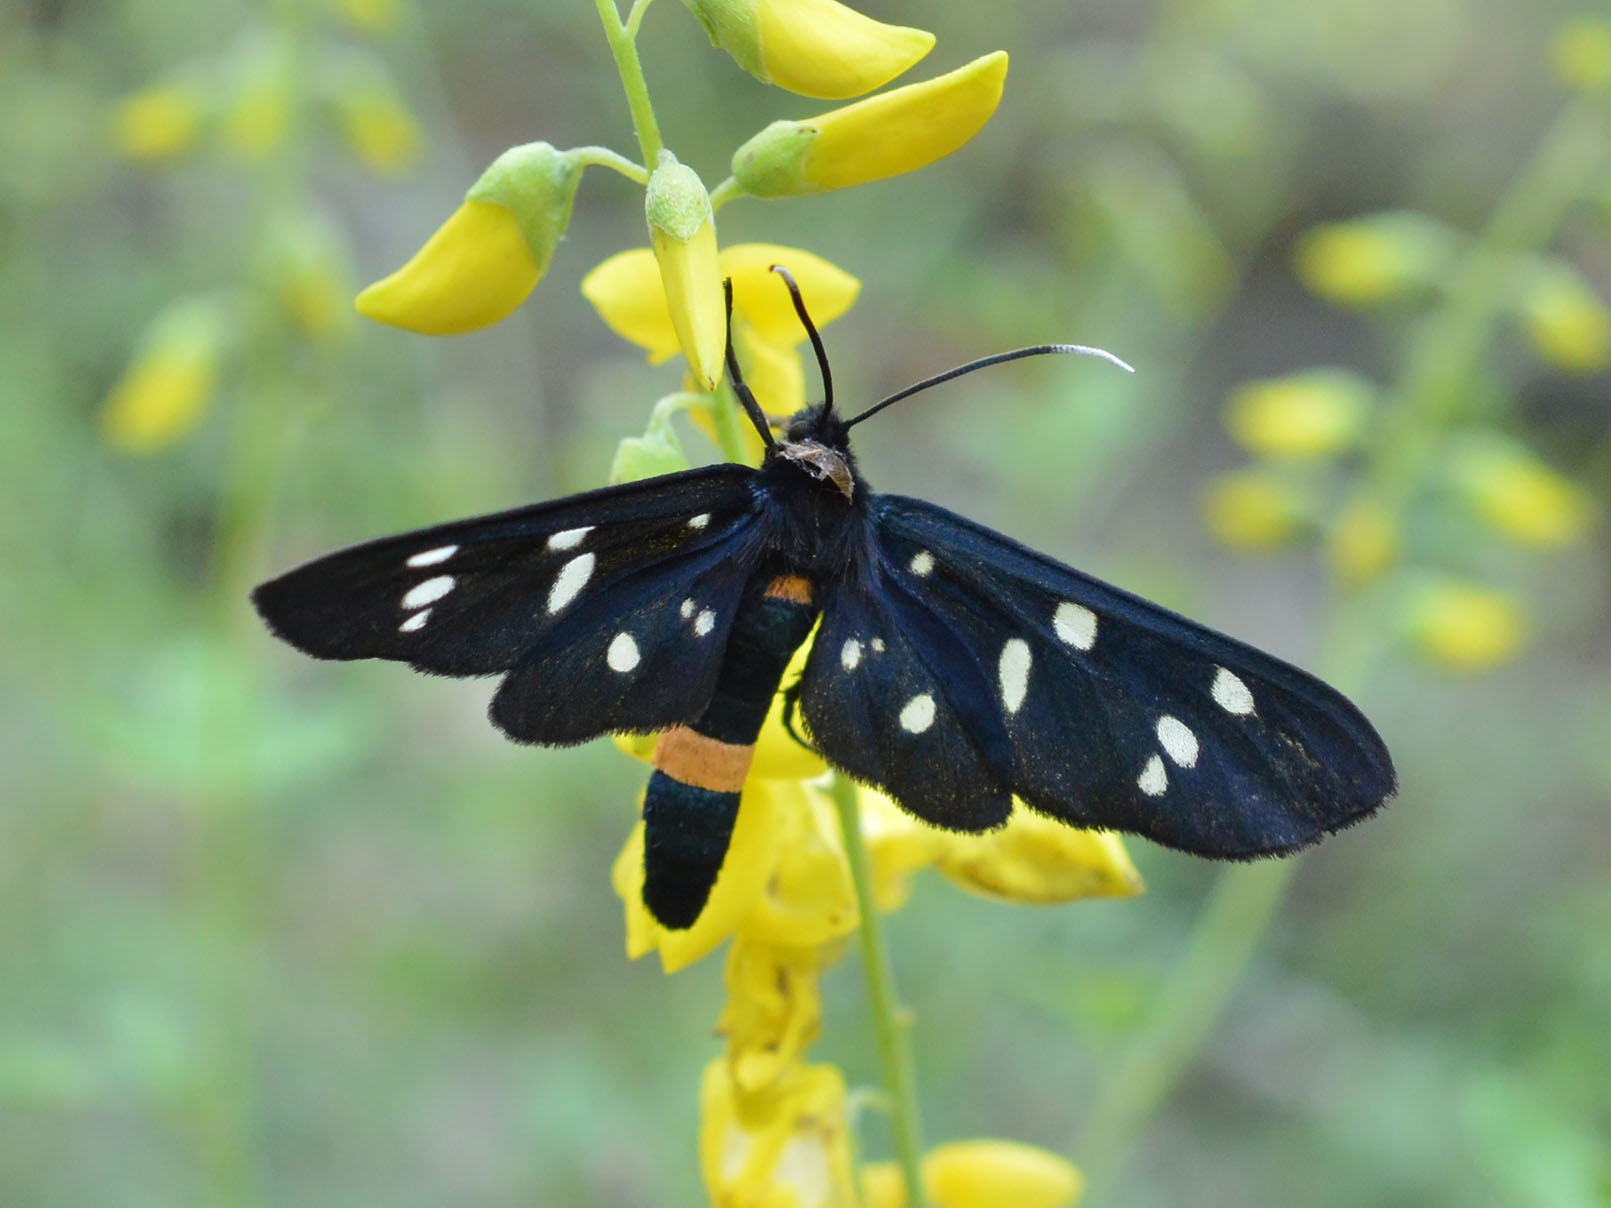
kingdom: Animalia
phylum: Arthropoda
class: Insecta
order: Lepidoptera
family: Erebidae
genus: Amata
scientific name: Amata phegea
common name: Nine-spotted
